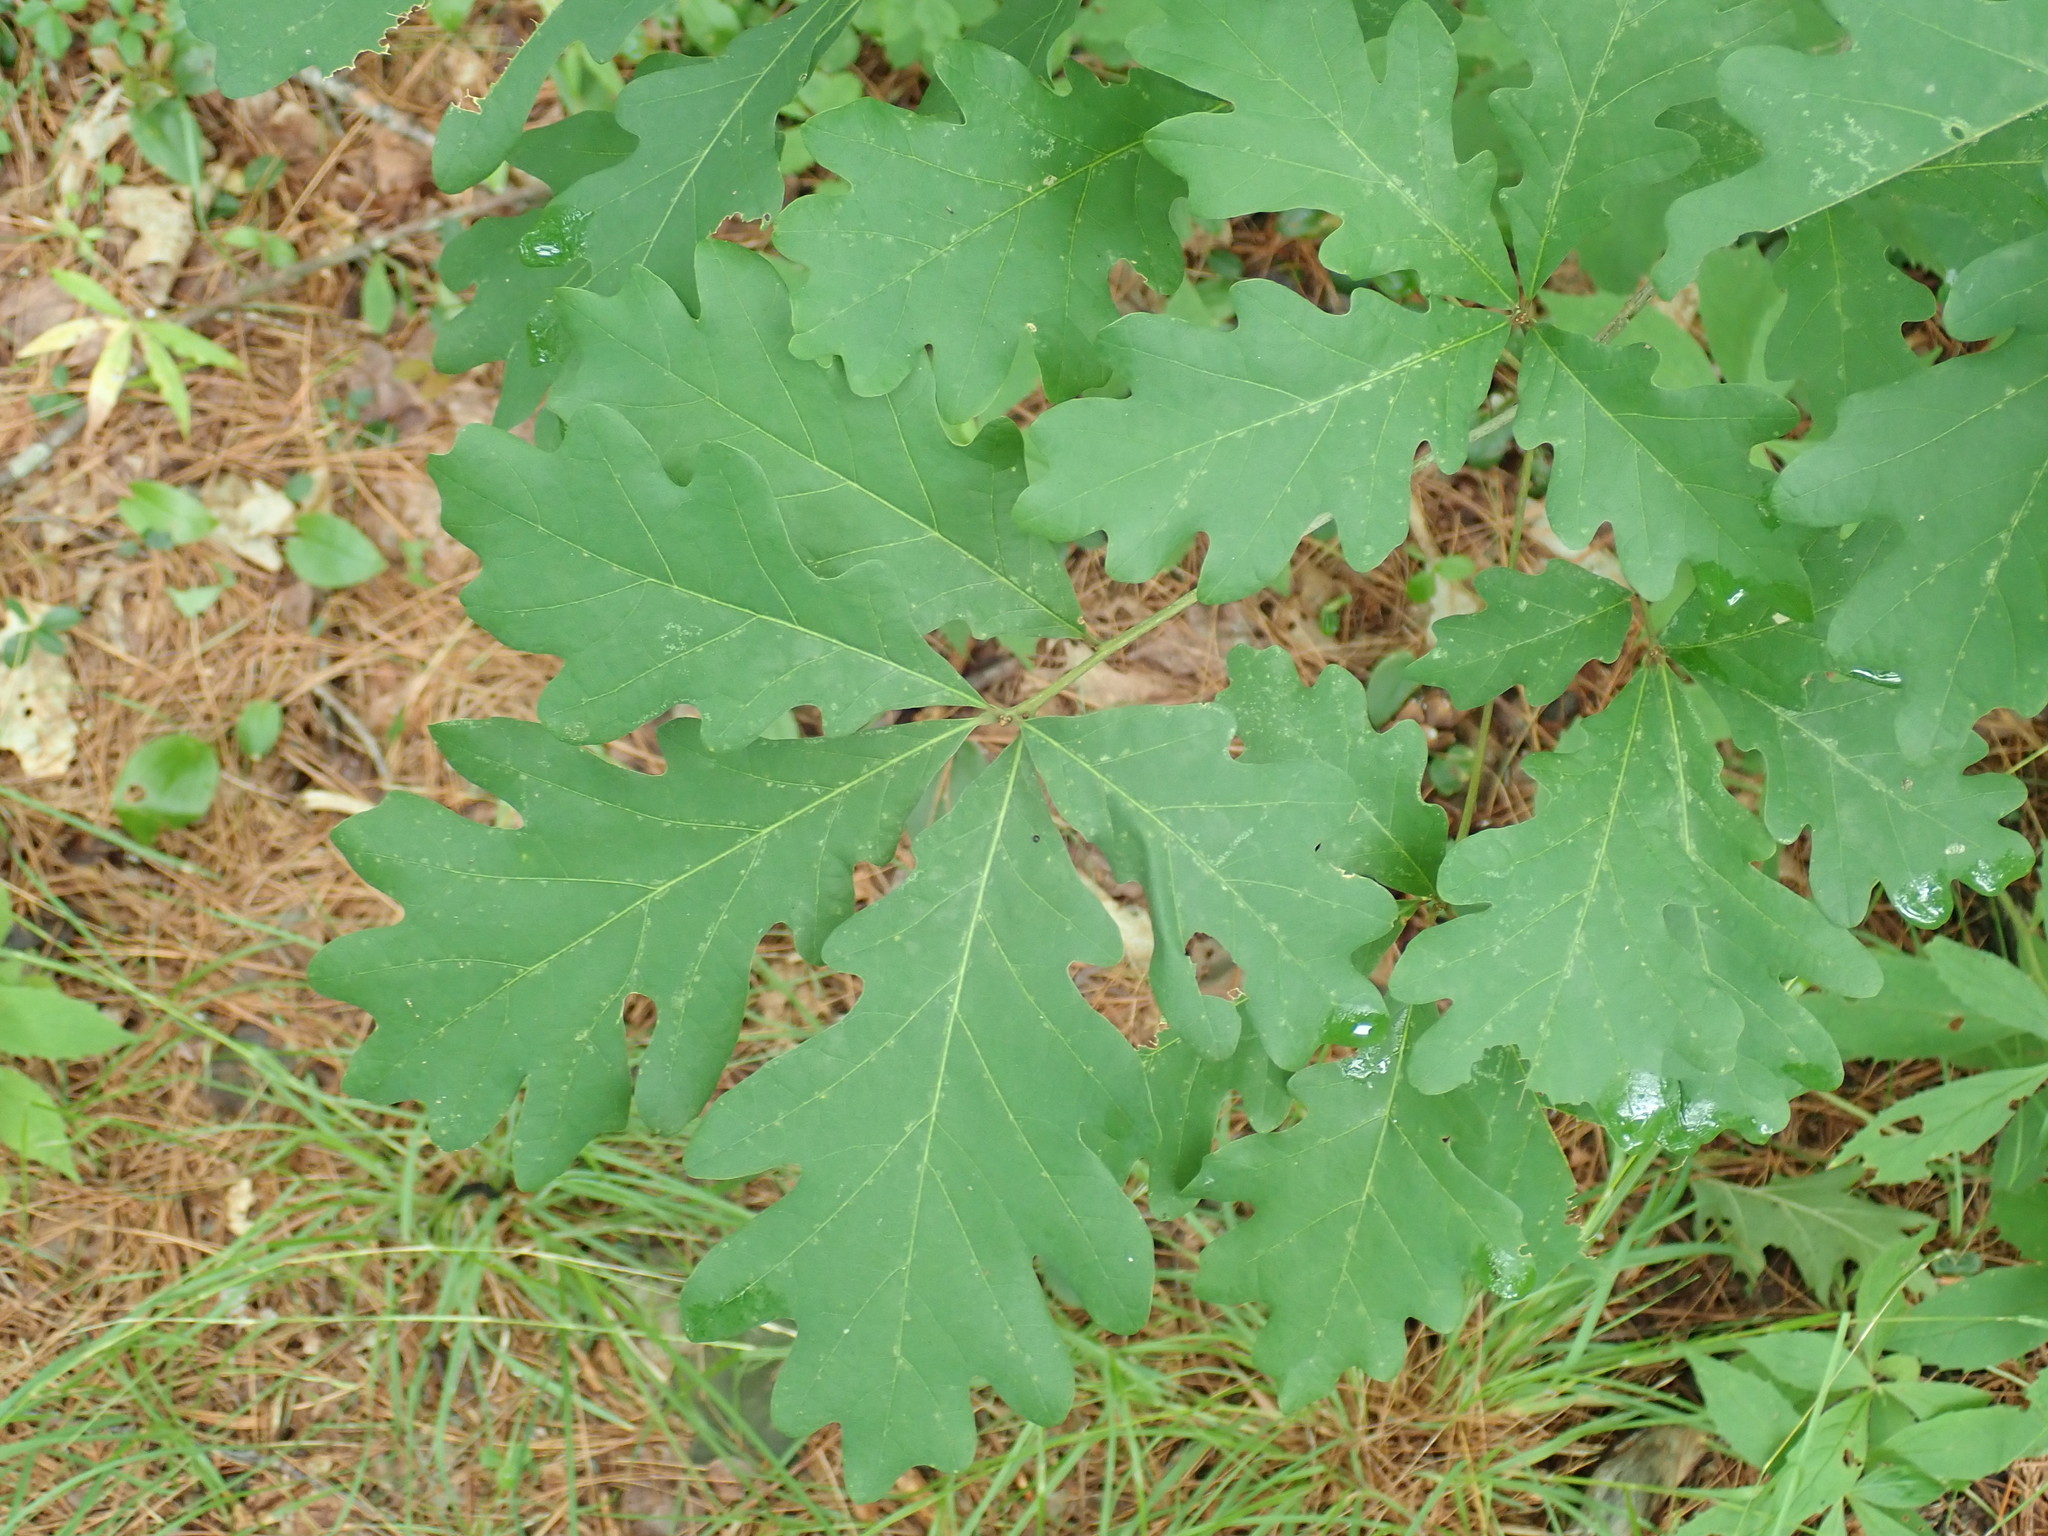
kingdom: Plantae
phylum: Tracheophyta
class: Magnoliopsida
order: Fagales
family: Fagaceae
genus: Quercus
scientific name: Quercus alba
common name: White oak
